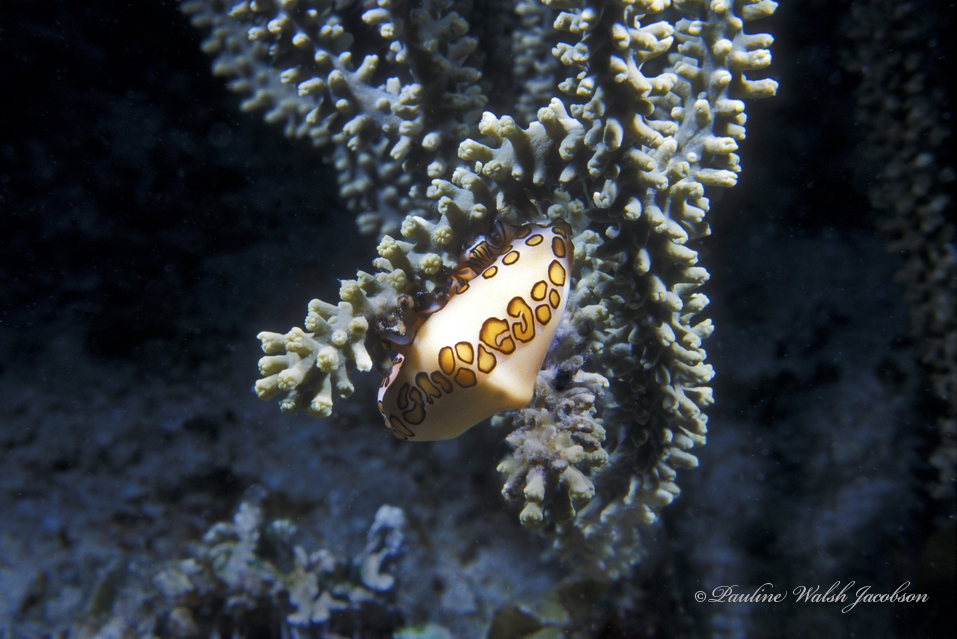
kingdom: Animalia
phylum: Mollusca
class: Gastropoda
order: Littorinimorpha
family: Ovulidae
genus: Cyphoma
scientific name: Cyphoma gibbosum
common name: Flamingo tongue
